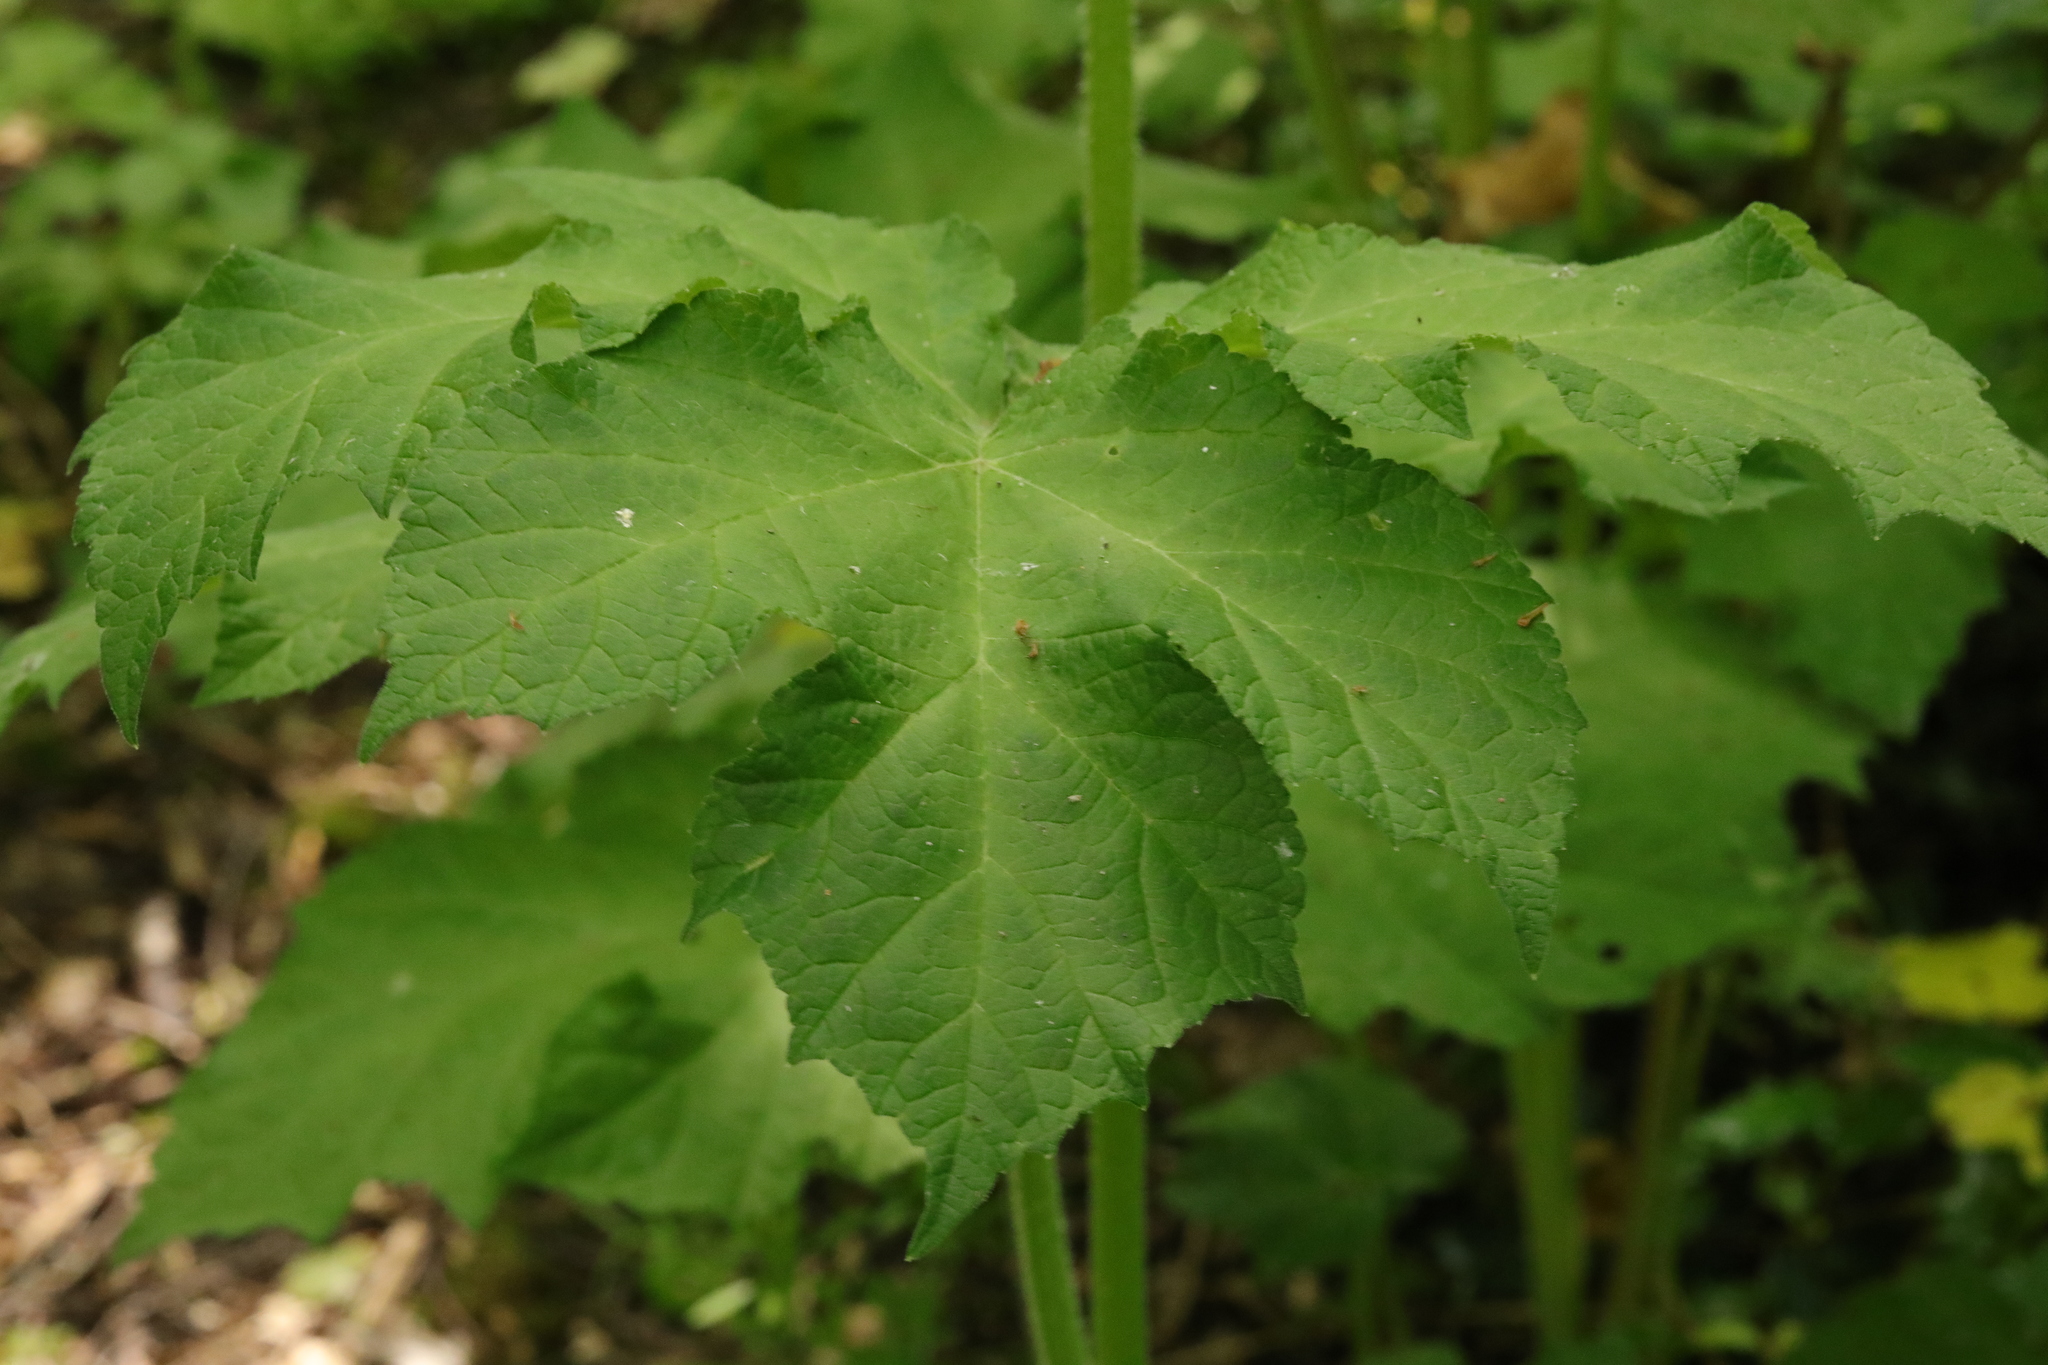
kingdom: Plantae
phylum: Tracheophyta
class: Magnoliopsida
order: Apiales
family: Apiaceae
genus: Heracleum
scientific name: Heracleum sphondylium
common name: Hogweed
